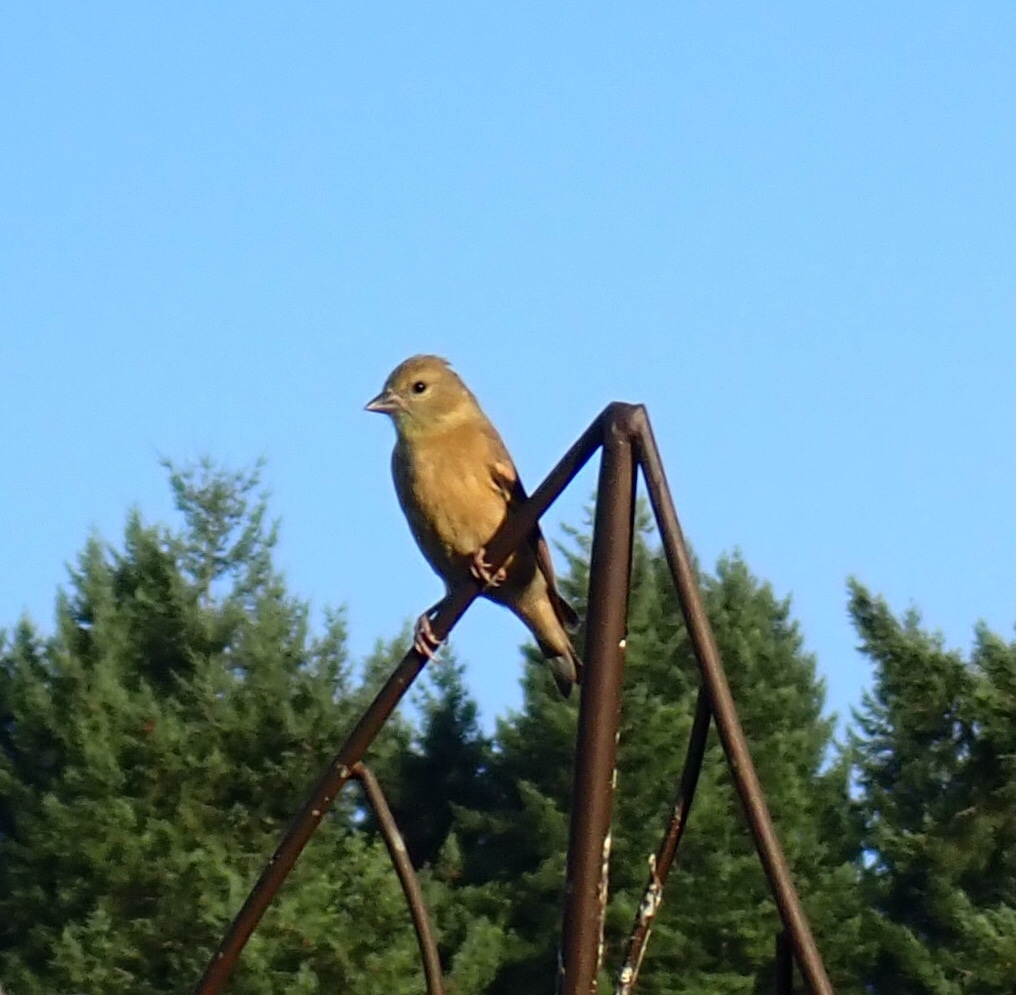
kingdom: Animalia
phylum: Chordata
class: Aves
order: Passeriformes
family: Fringillidae
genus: Spinus
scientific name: Spinus tristis
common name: American goldfinch
